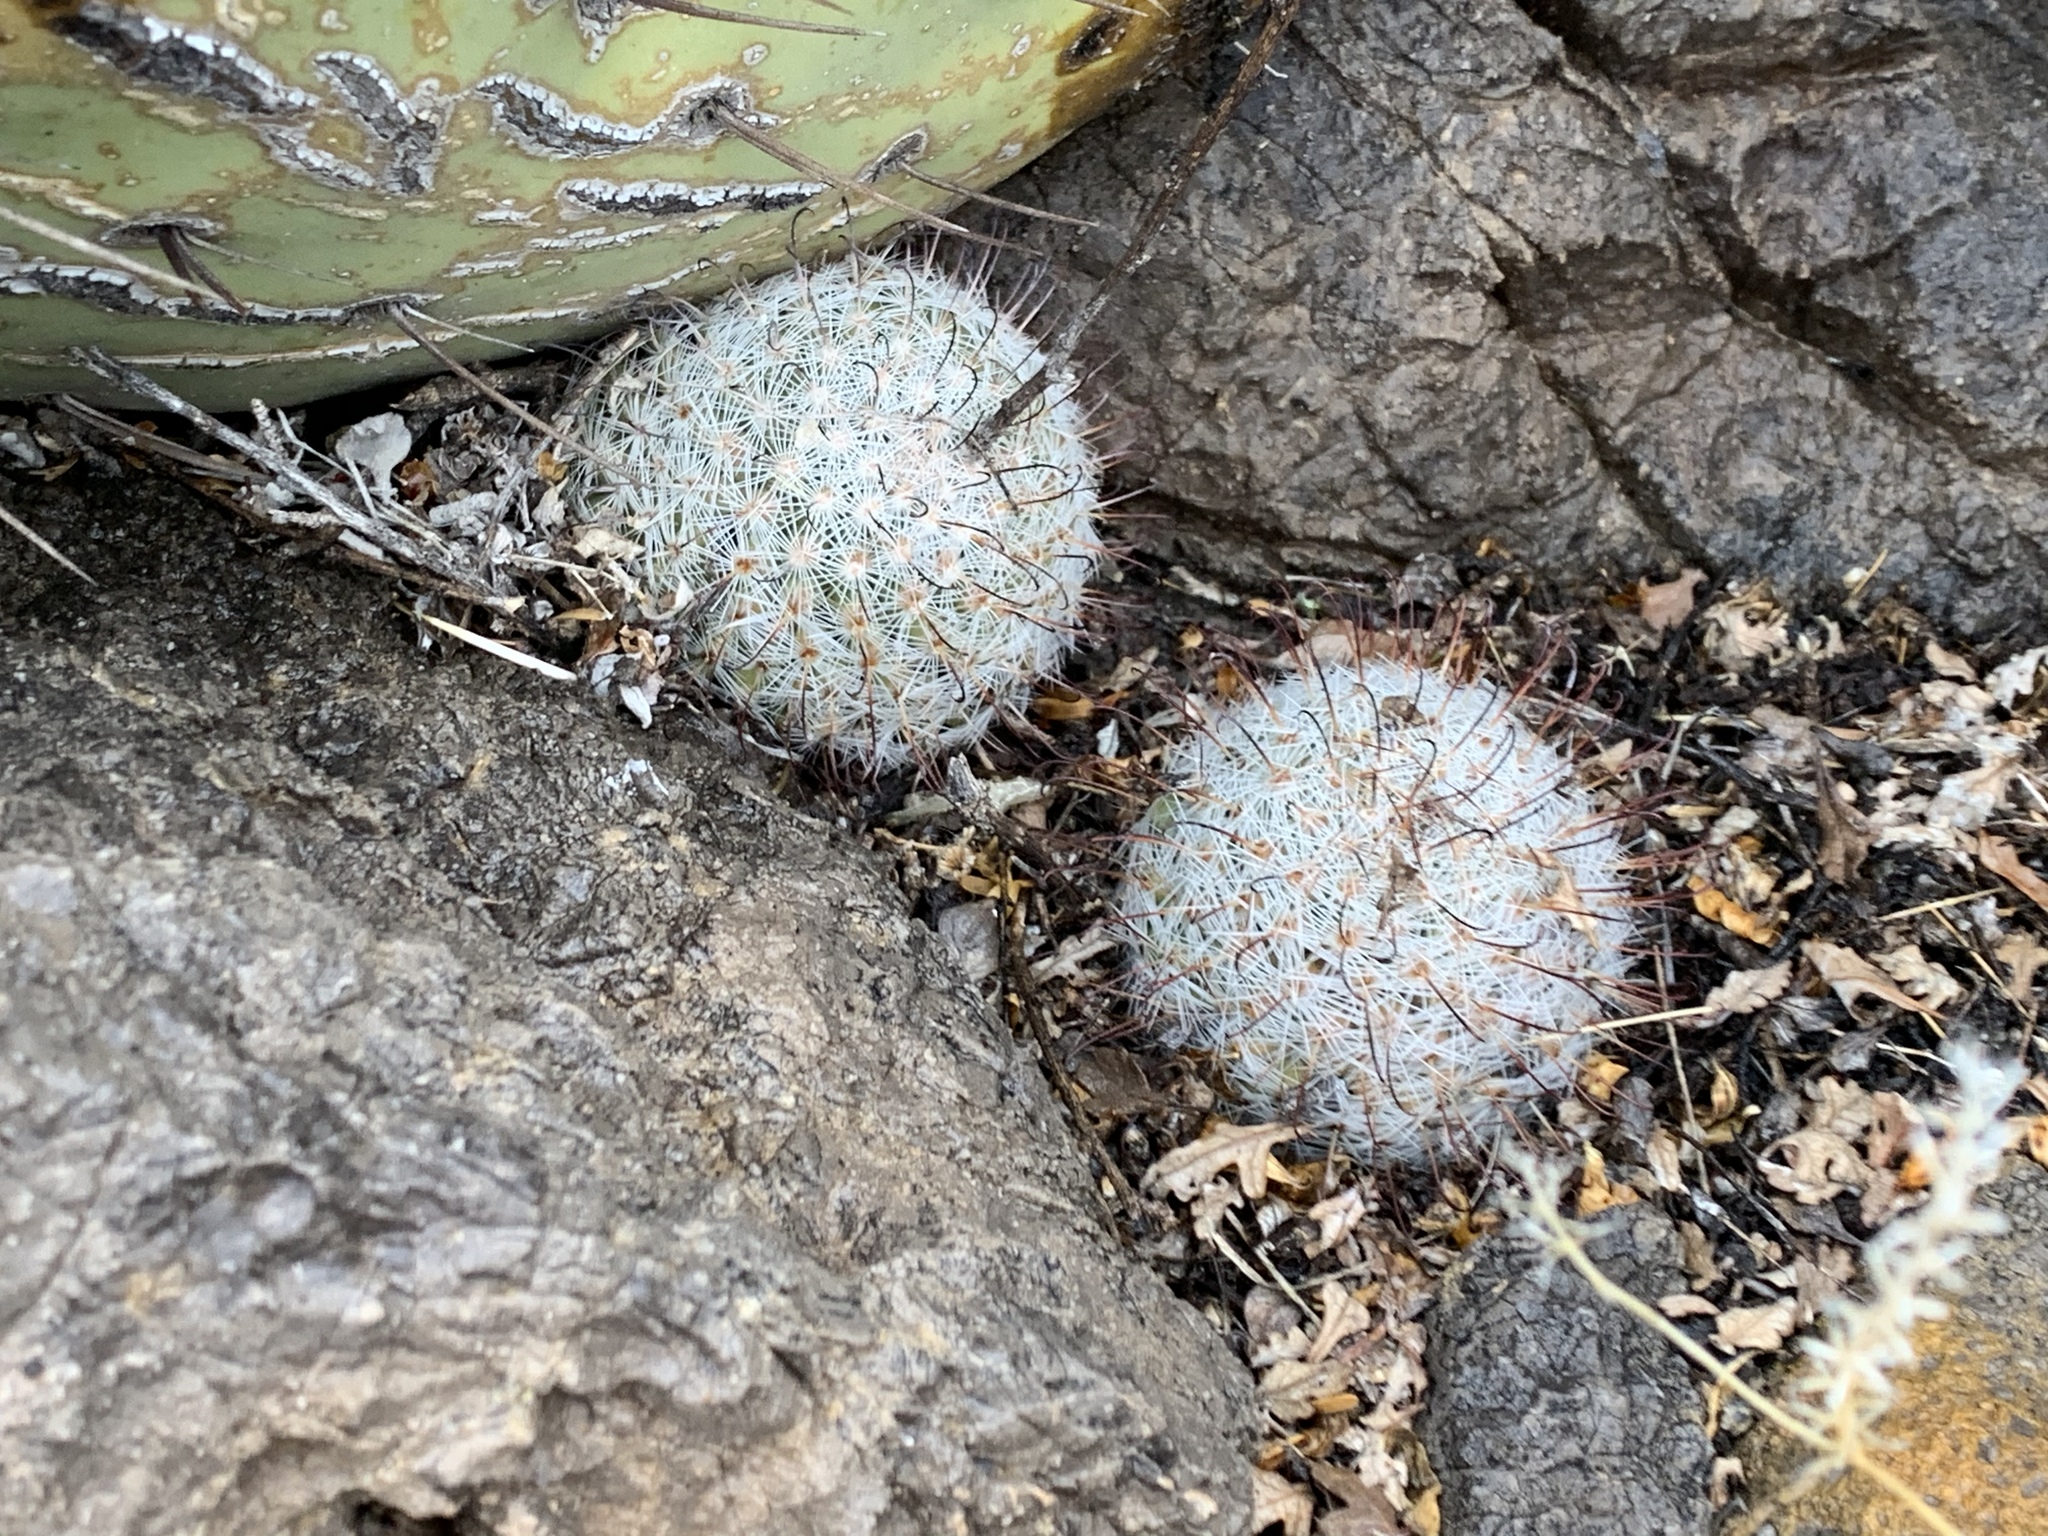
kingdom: Plantae
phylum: Tracheophyta
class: Magnoliopsida
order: Caryophyllales
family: Cactaceae
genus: Cochemiea
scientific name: Cochemiea grahamii
